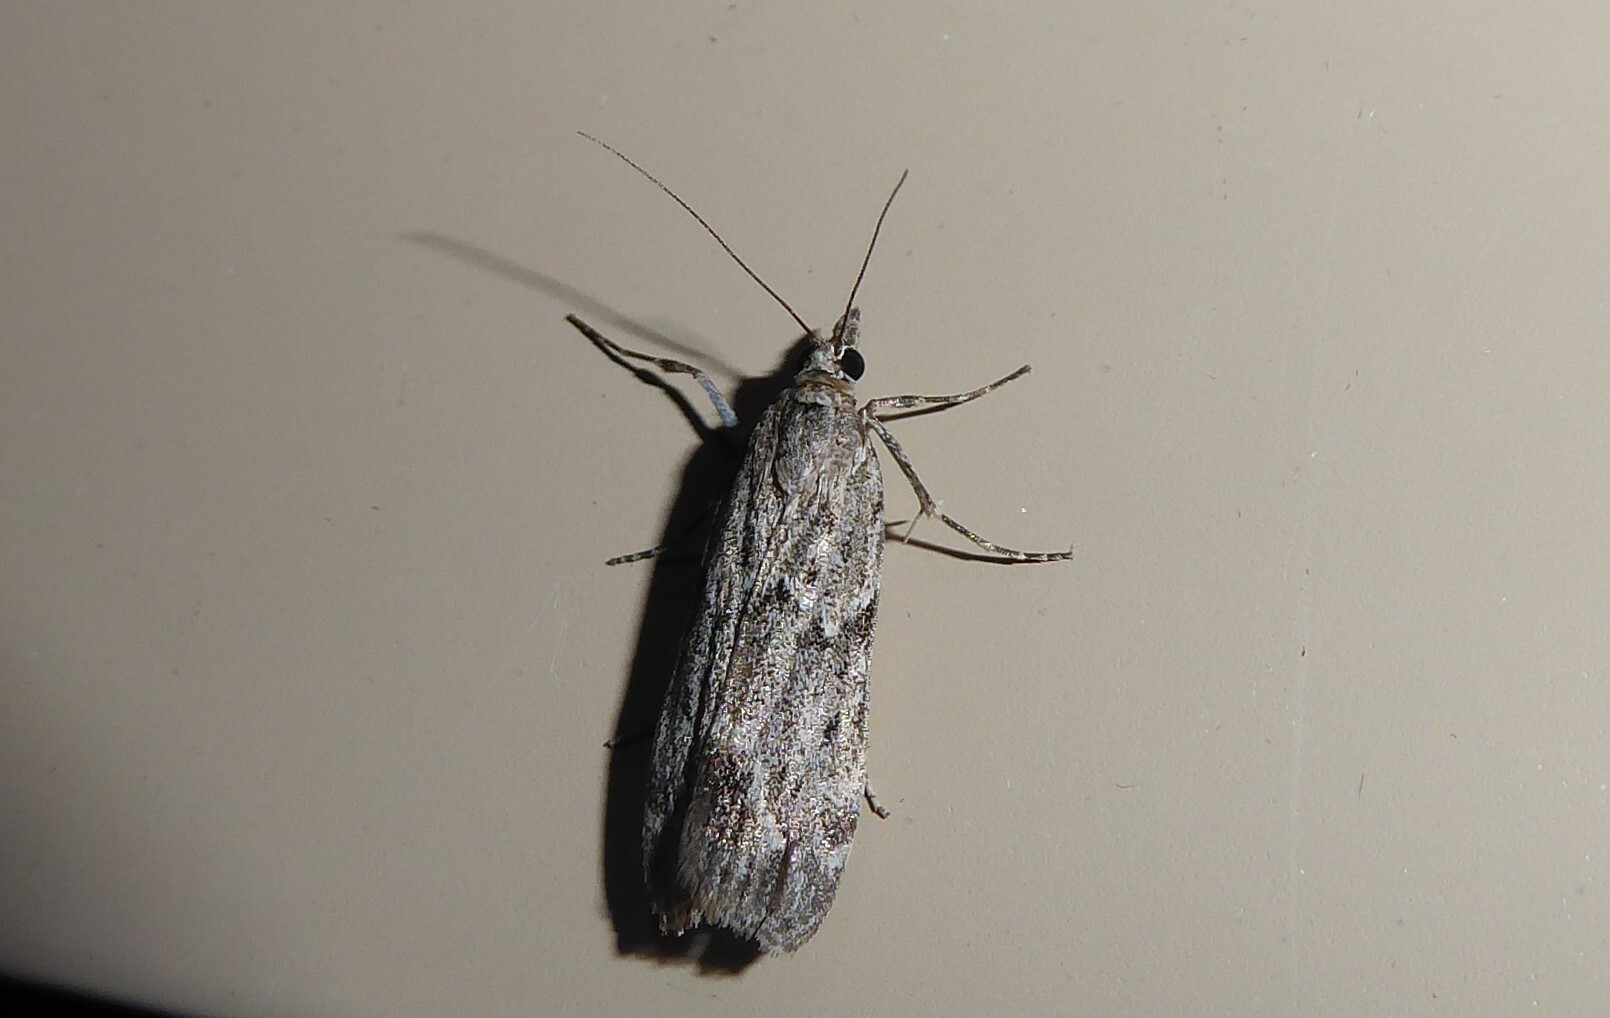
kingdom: Animalia
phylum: Arthropoda
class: Insecta
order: Lepidoptera
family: Crambidae
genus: Eudonia
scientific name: Eudonia rakaiensis
